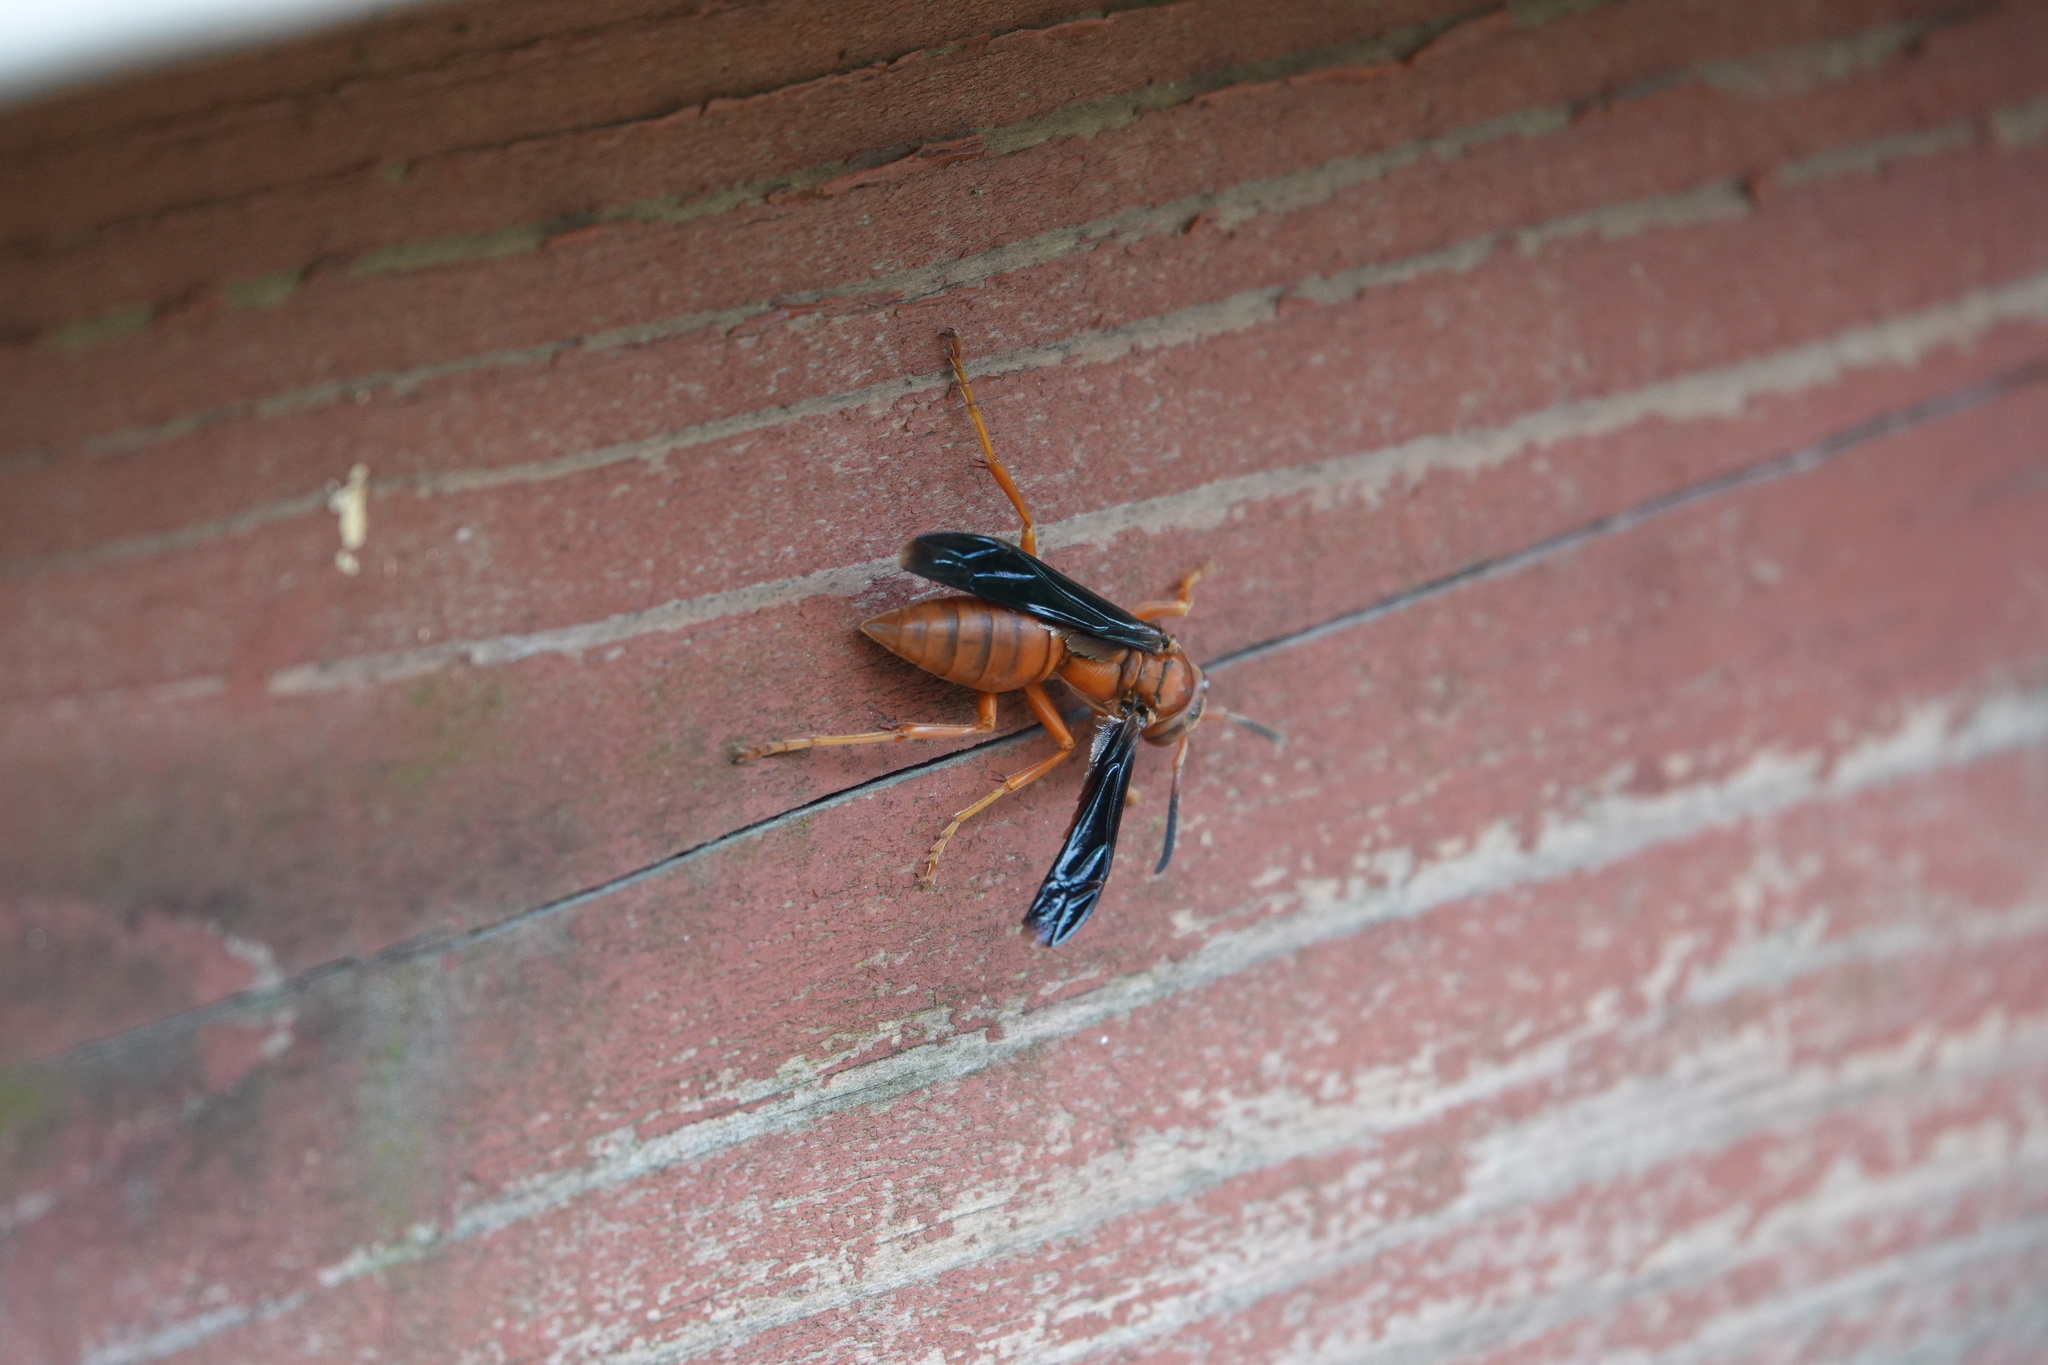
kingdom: Animalia
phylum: Arthropoda
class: Insecta
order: Hymenoptera
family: Eumenidae
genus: Polistes
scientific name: Polistes carolina
